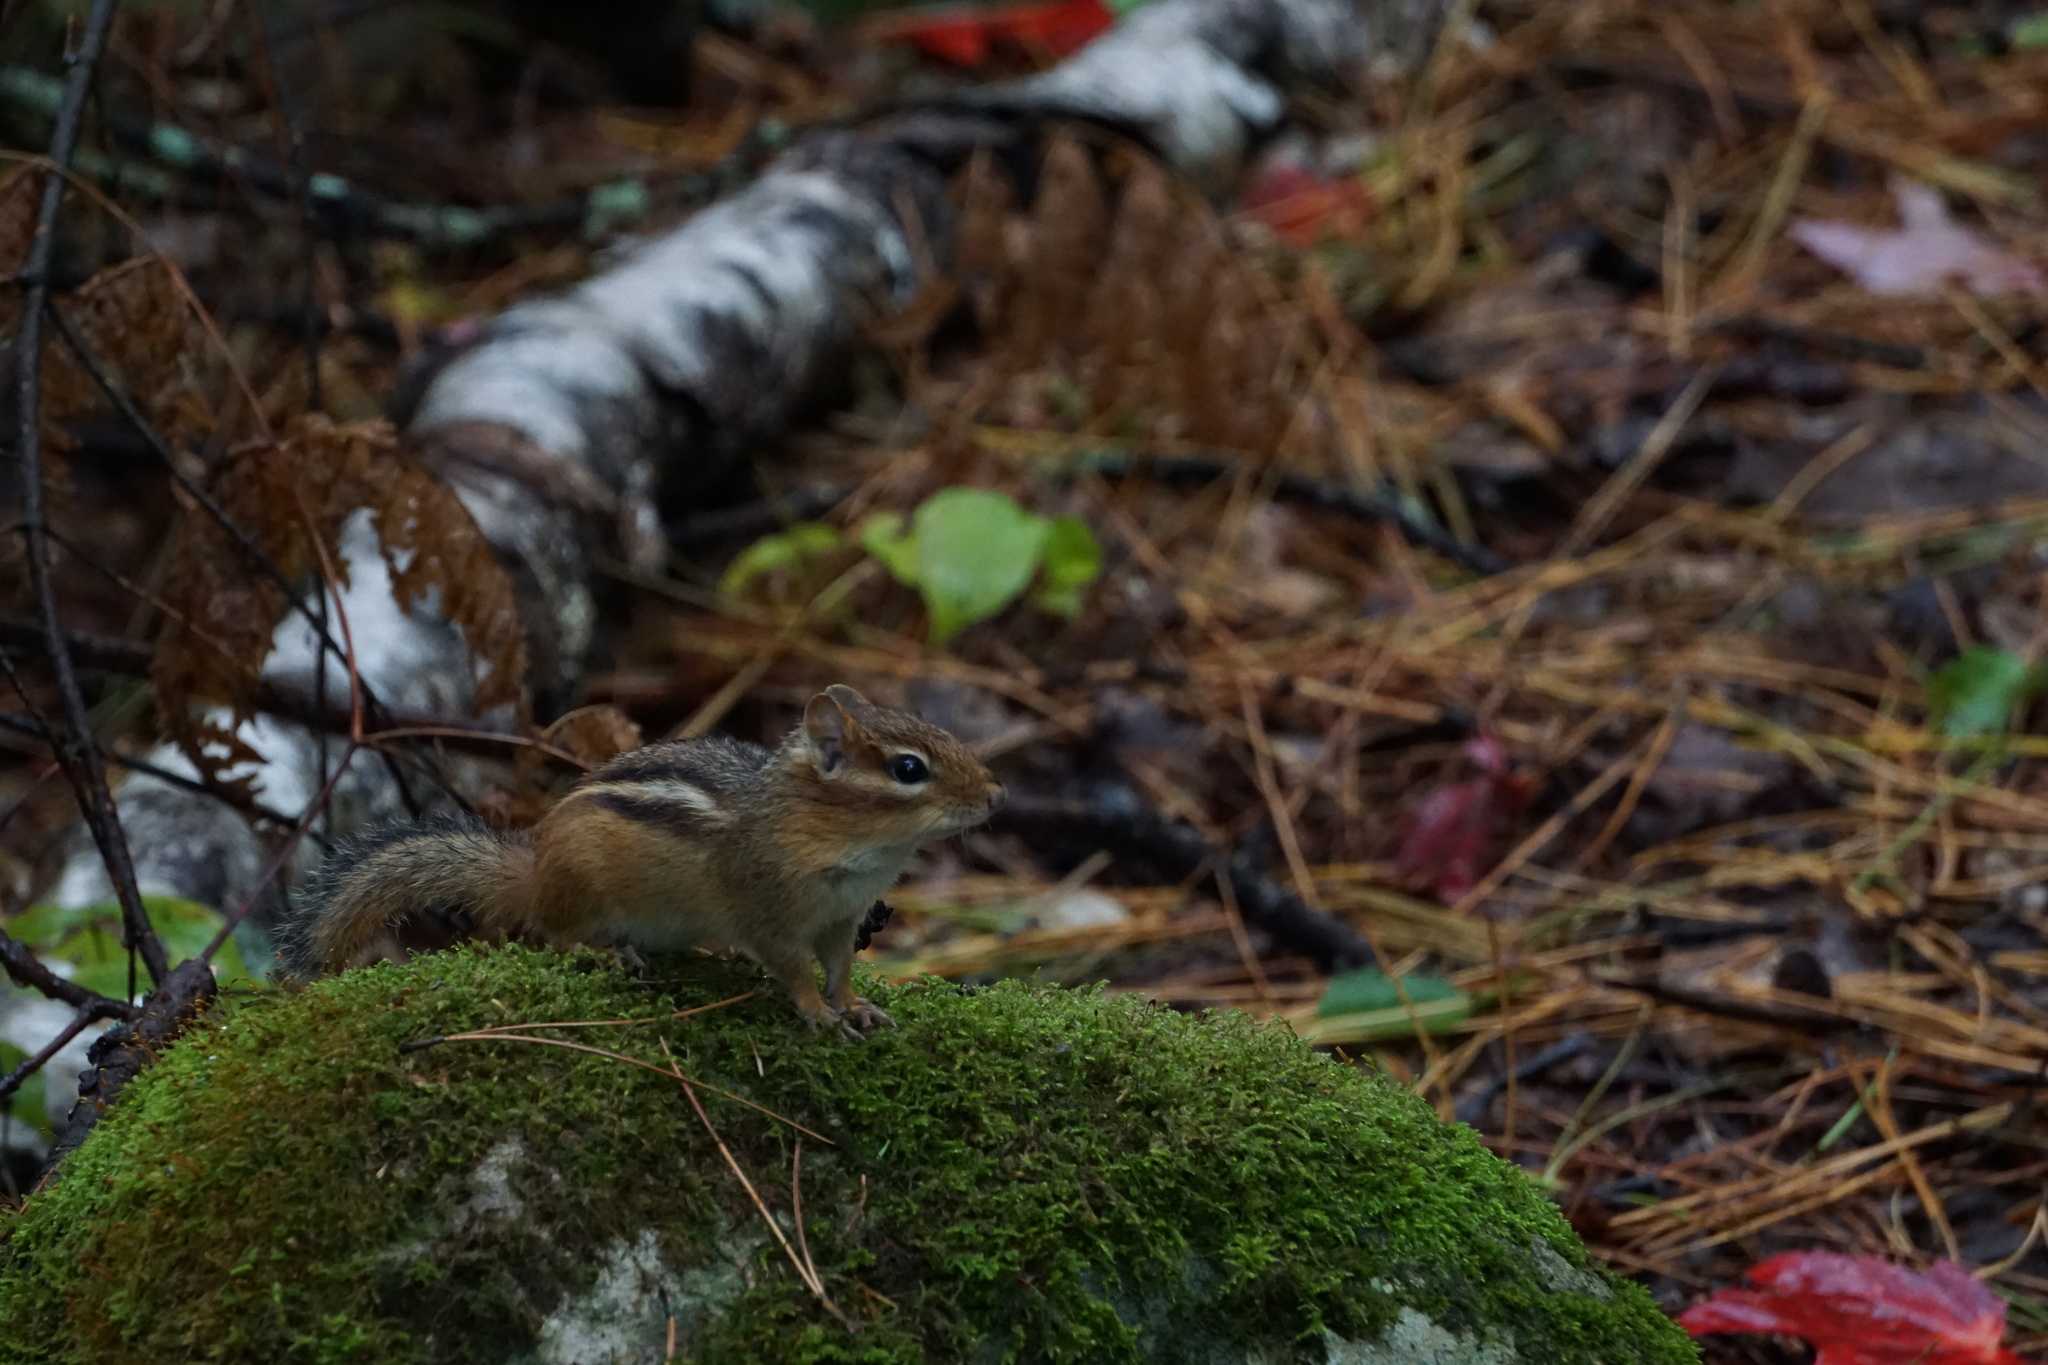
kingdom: Animalia
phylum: Chordata
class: Mammalia
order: Rodentia
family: Sciuridae
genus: Tamias
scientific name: Tamias striatus
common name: Eastern chipmunk
